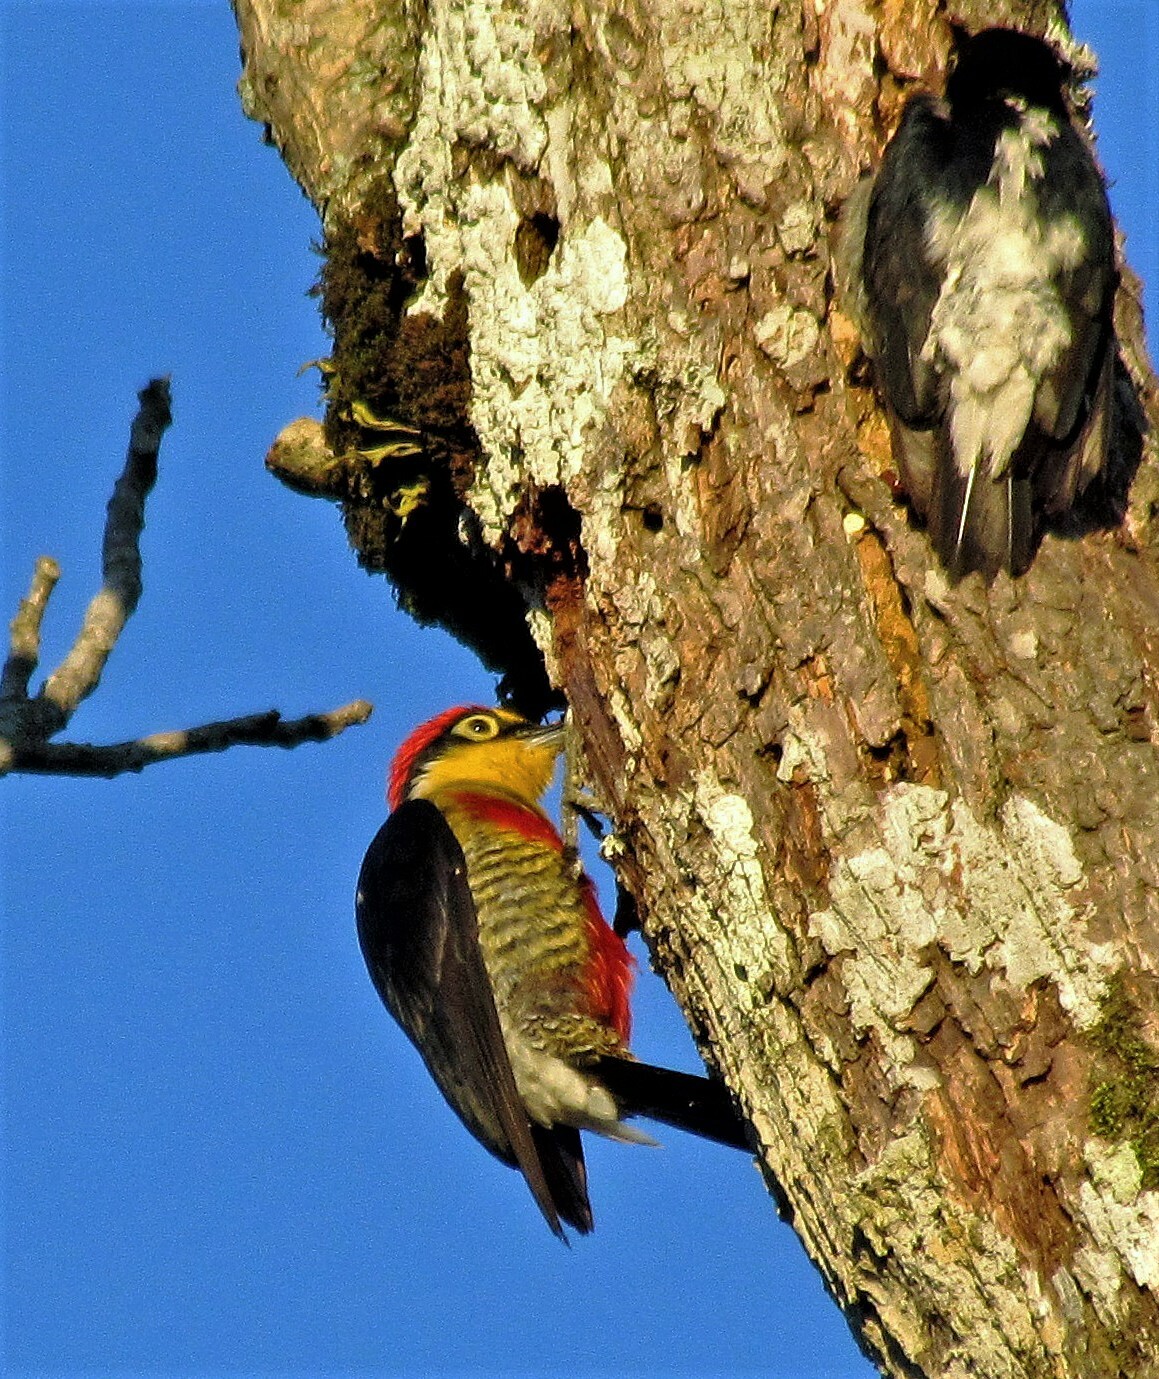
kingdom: Animalia
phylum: Chordata
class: Aves
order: Piciformes
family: Picidae
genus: Melanerpes
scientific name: Melanerpes flavifrons
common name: Yellow-fronted woodpecker
